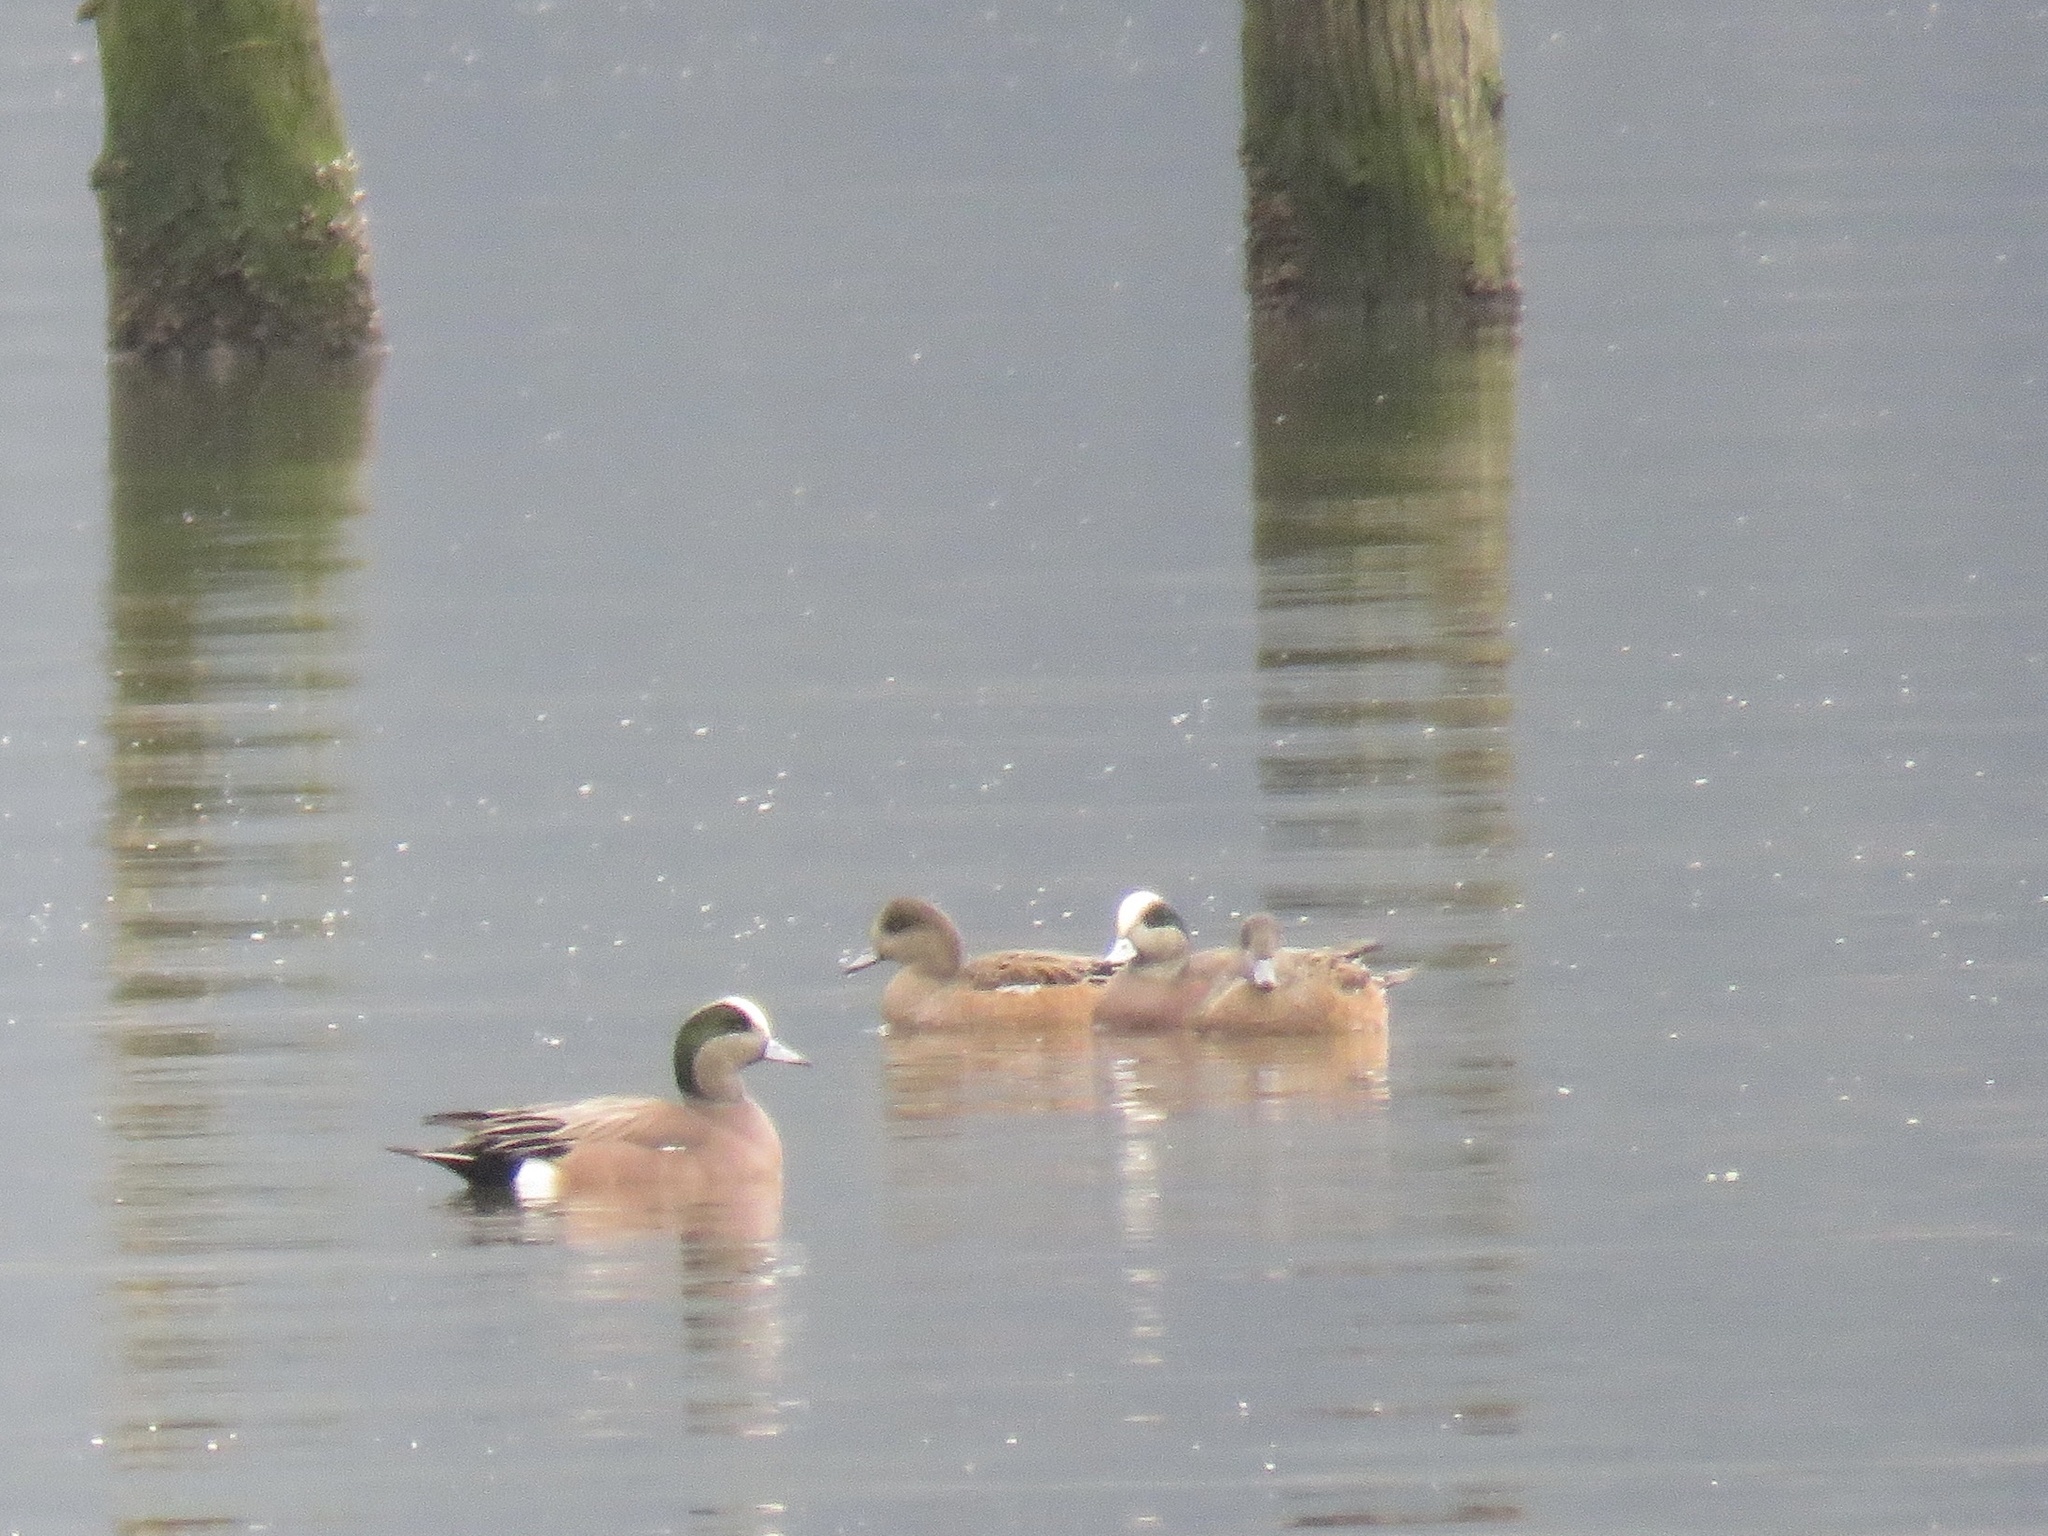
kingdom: Animalia
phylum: Chordata
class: Aves
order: Anseriformes
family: Anatidae
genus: Mareca
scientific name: Mareca americana
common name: American wigeon
